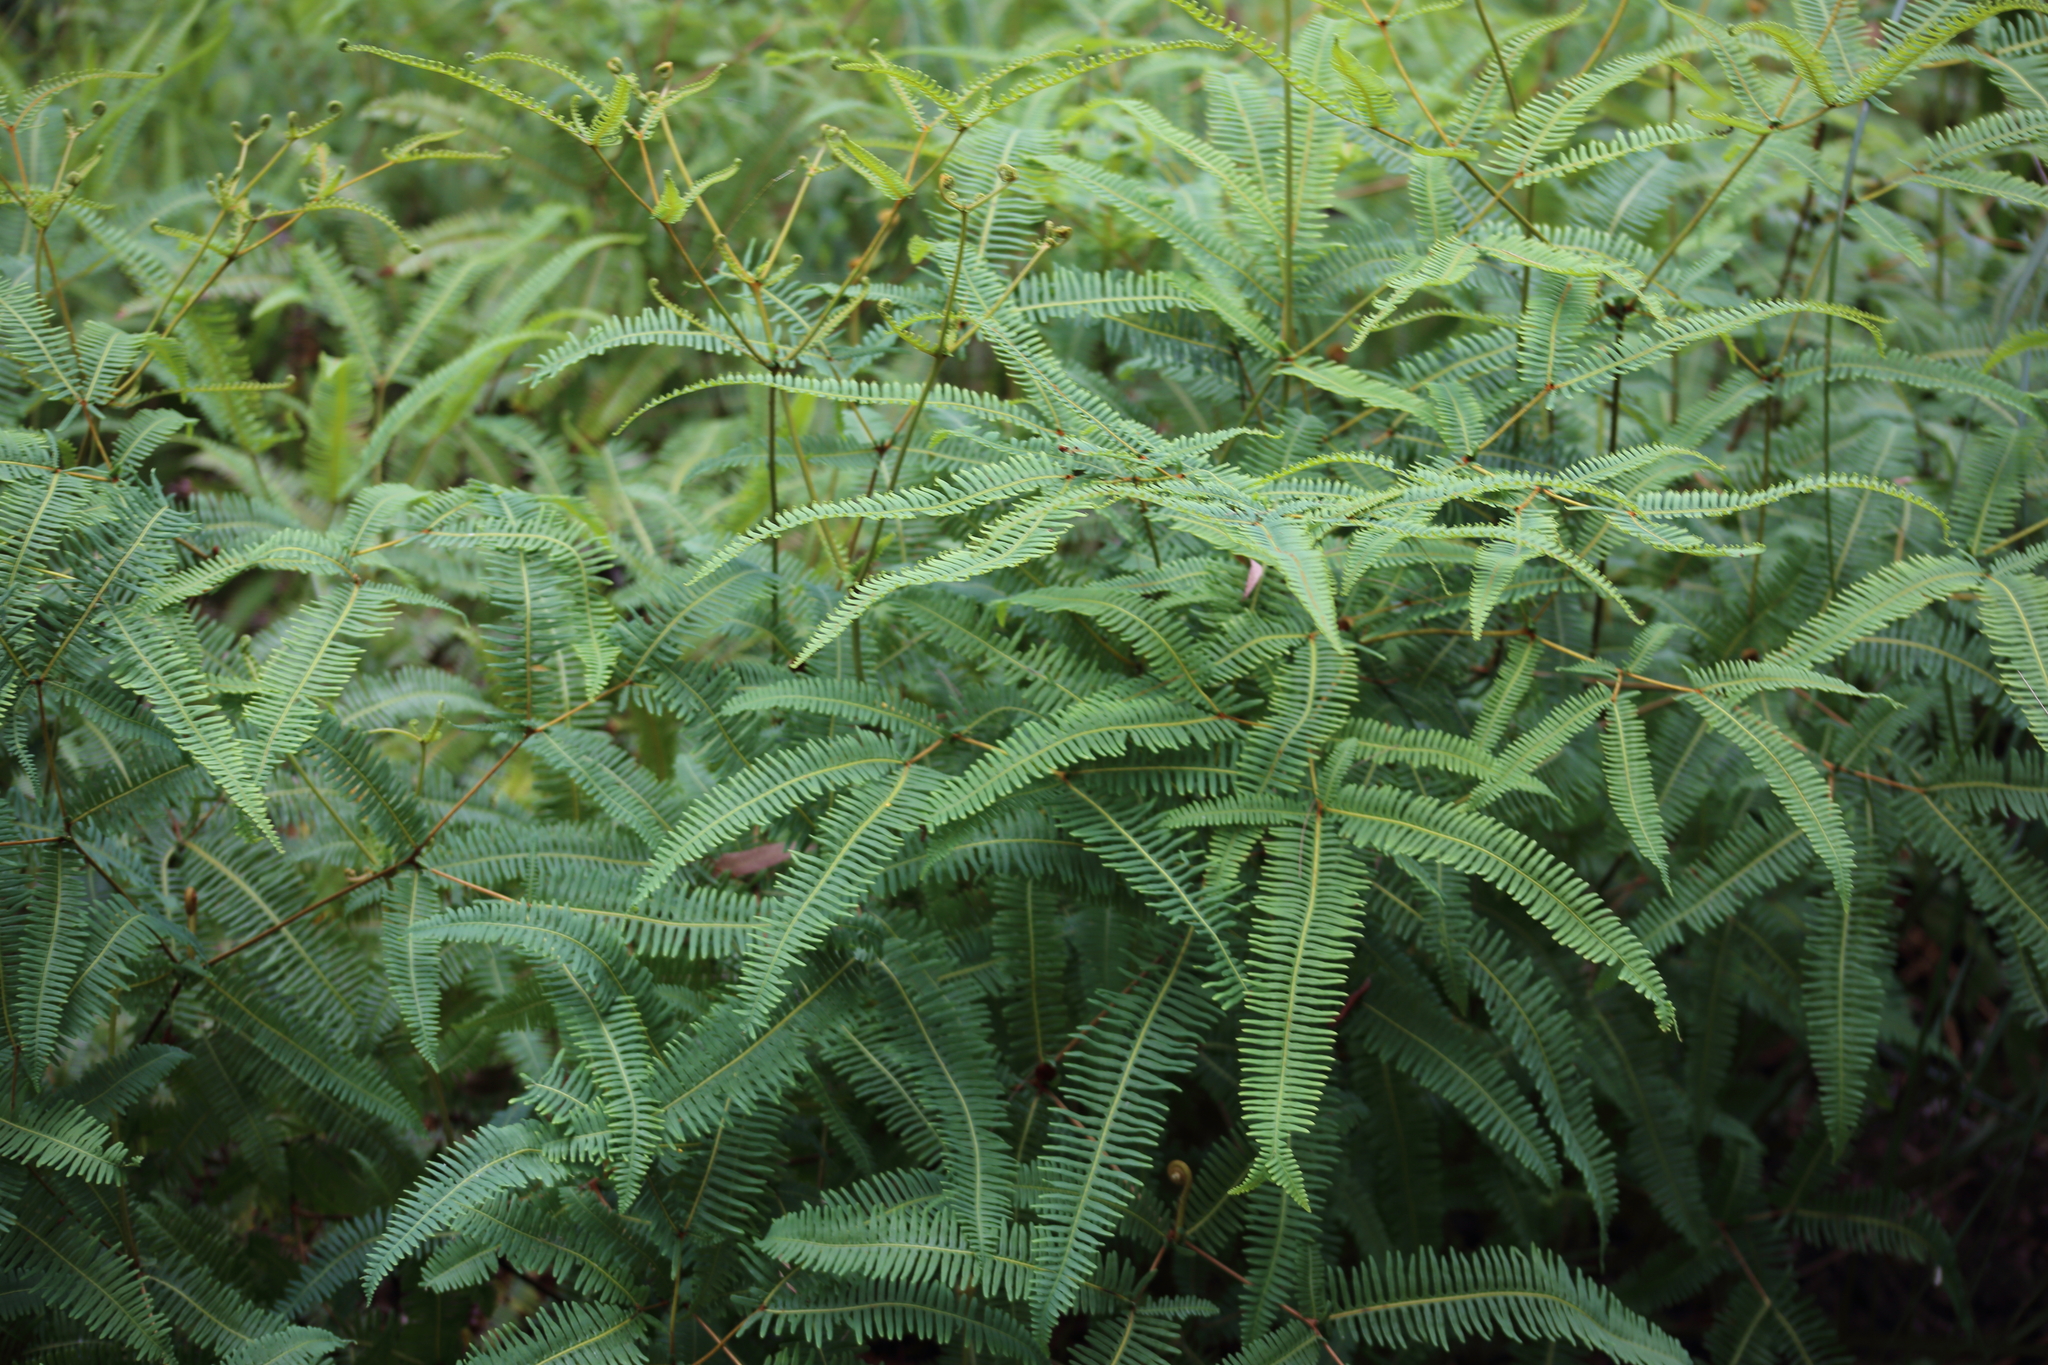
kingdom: Plantae
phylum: Tracheophyta
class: Polypodiopsida
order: Gleicheniales
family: Gleicheniaceae
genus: Dicranopteris
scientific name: Dicranopteris linearis
